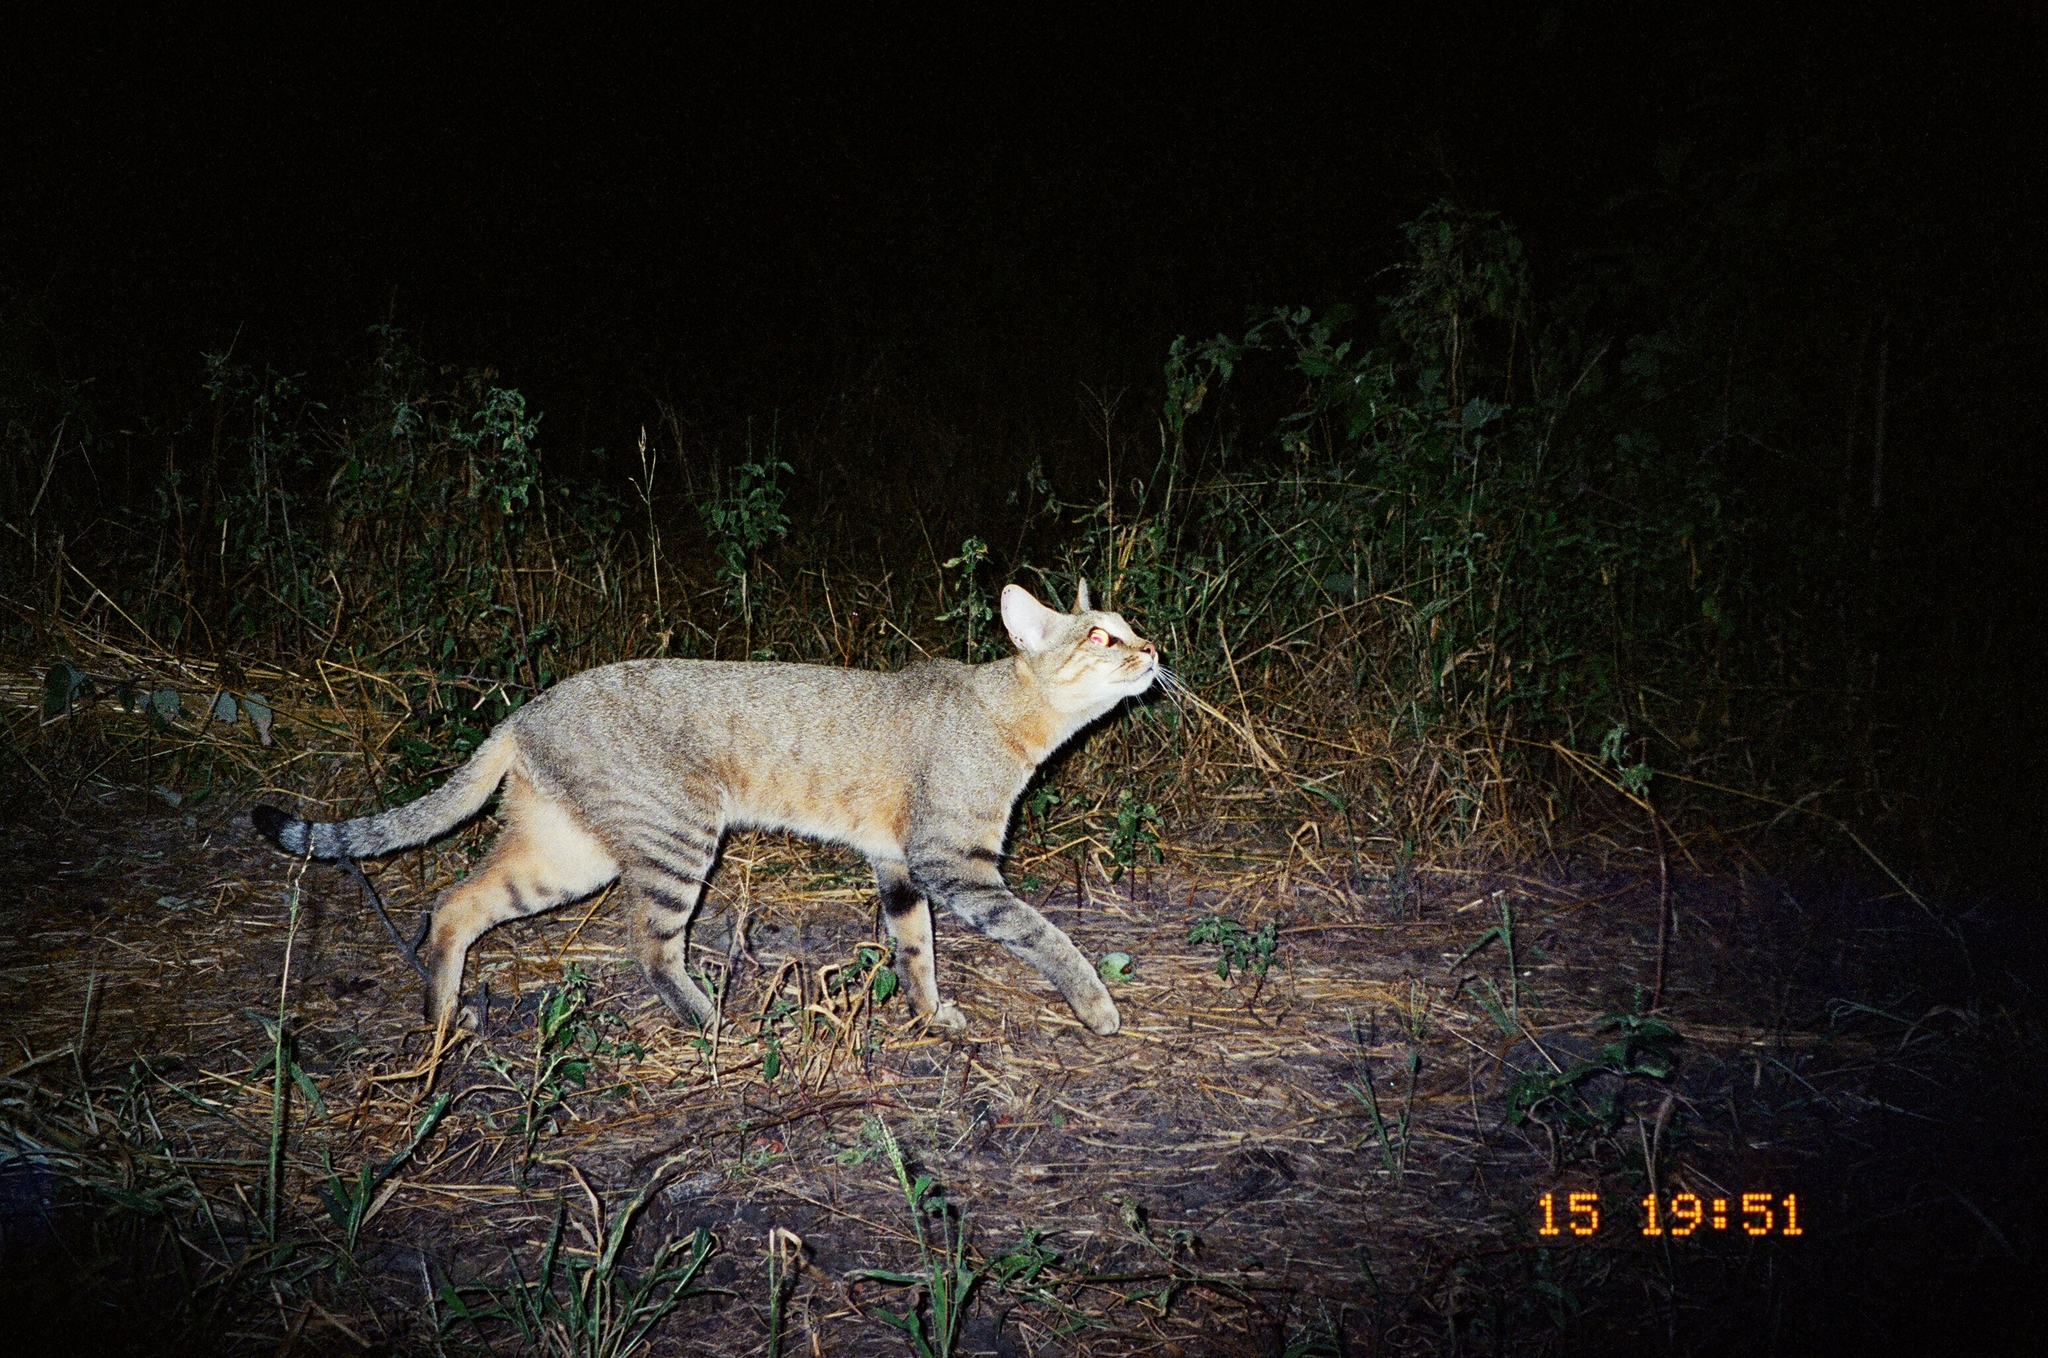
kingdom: Animalia
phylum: Chordata
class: Mammalia
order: Carnivora
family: Felidae
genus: Felis
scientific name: Felis silvestris
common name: Wildcat
